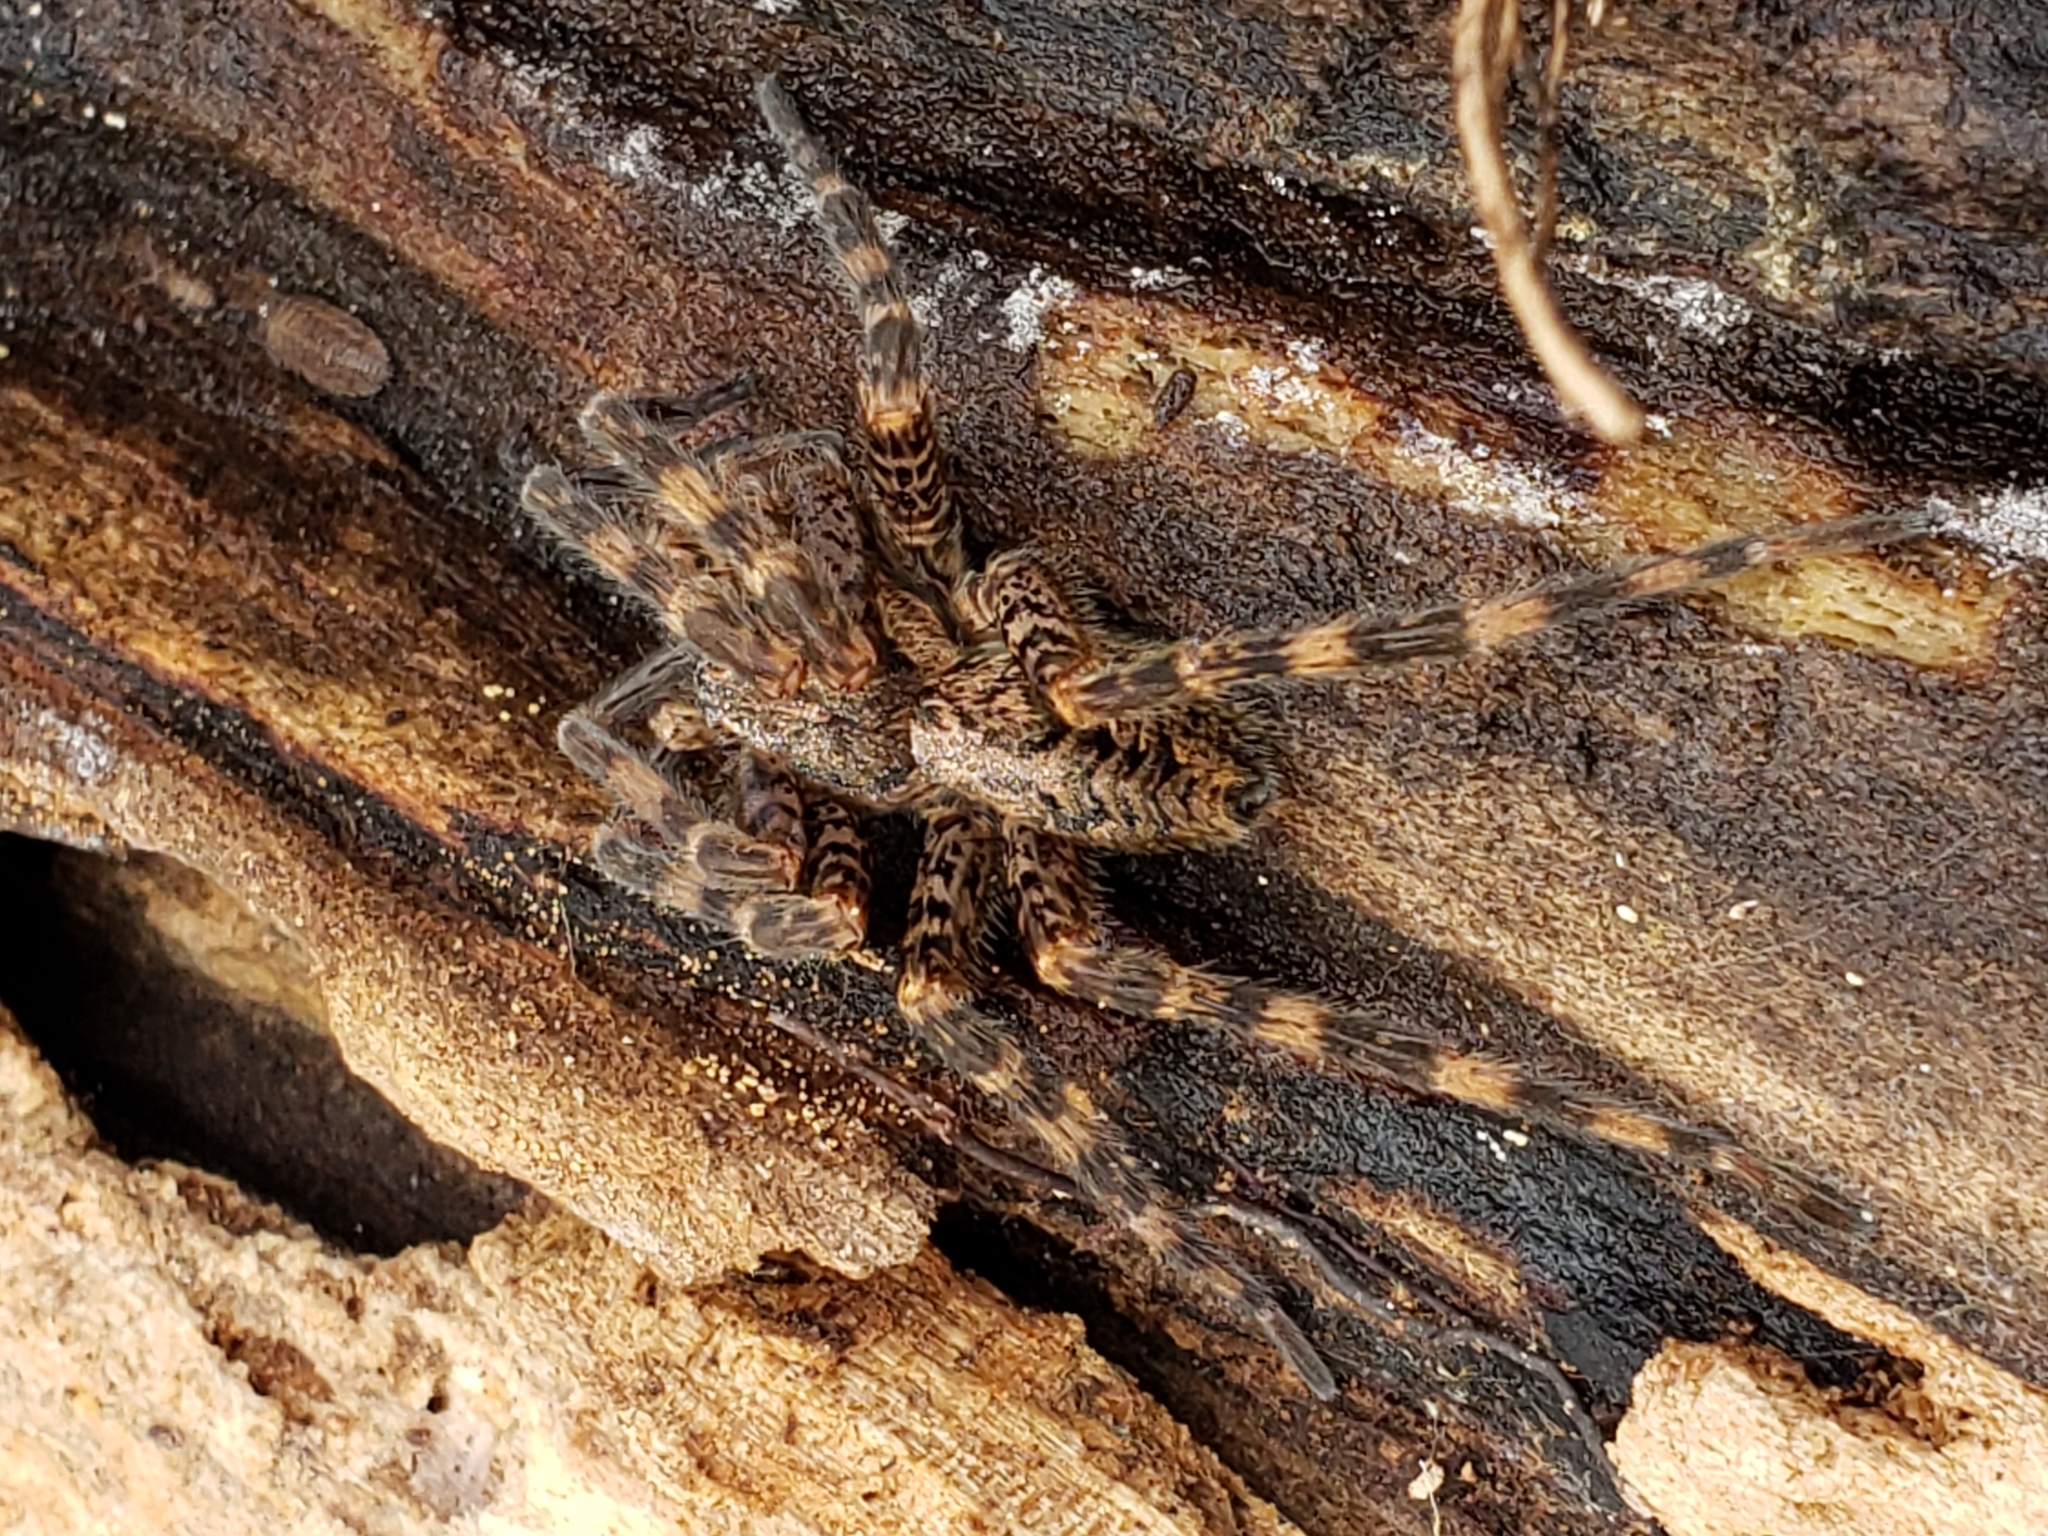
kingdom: Animalia
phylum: Arthropoda
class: Arachnida
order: Araneae
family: Pisauridae
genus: Dolomedes
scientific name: Dolomedes tenebrosus
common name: Dark fishing spider
